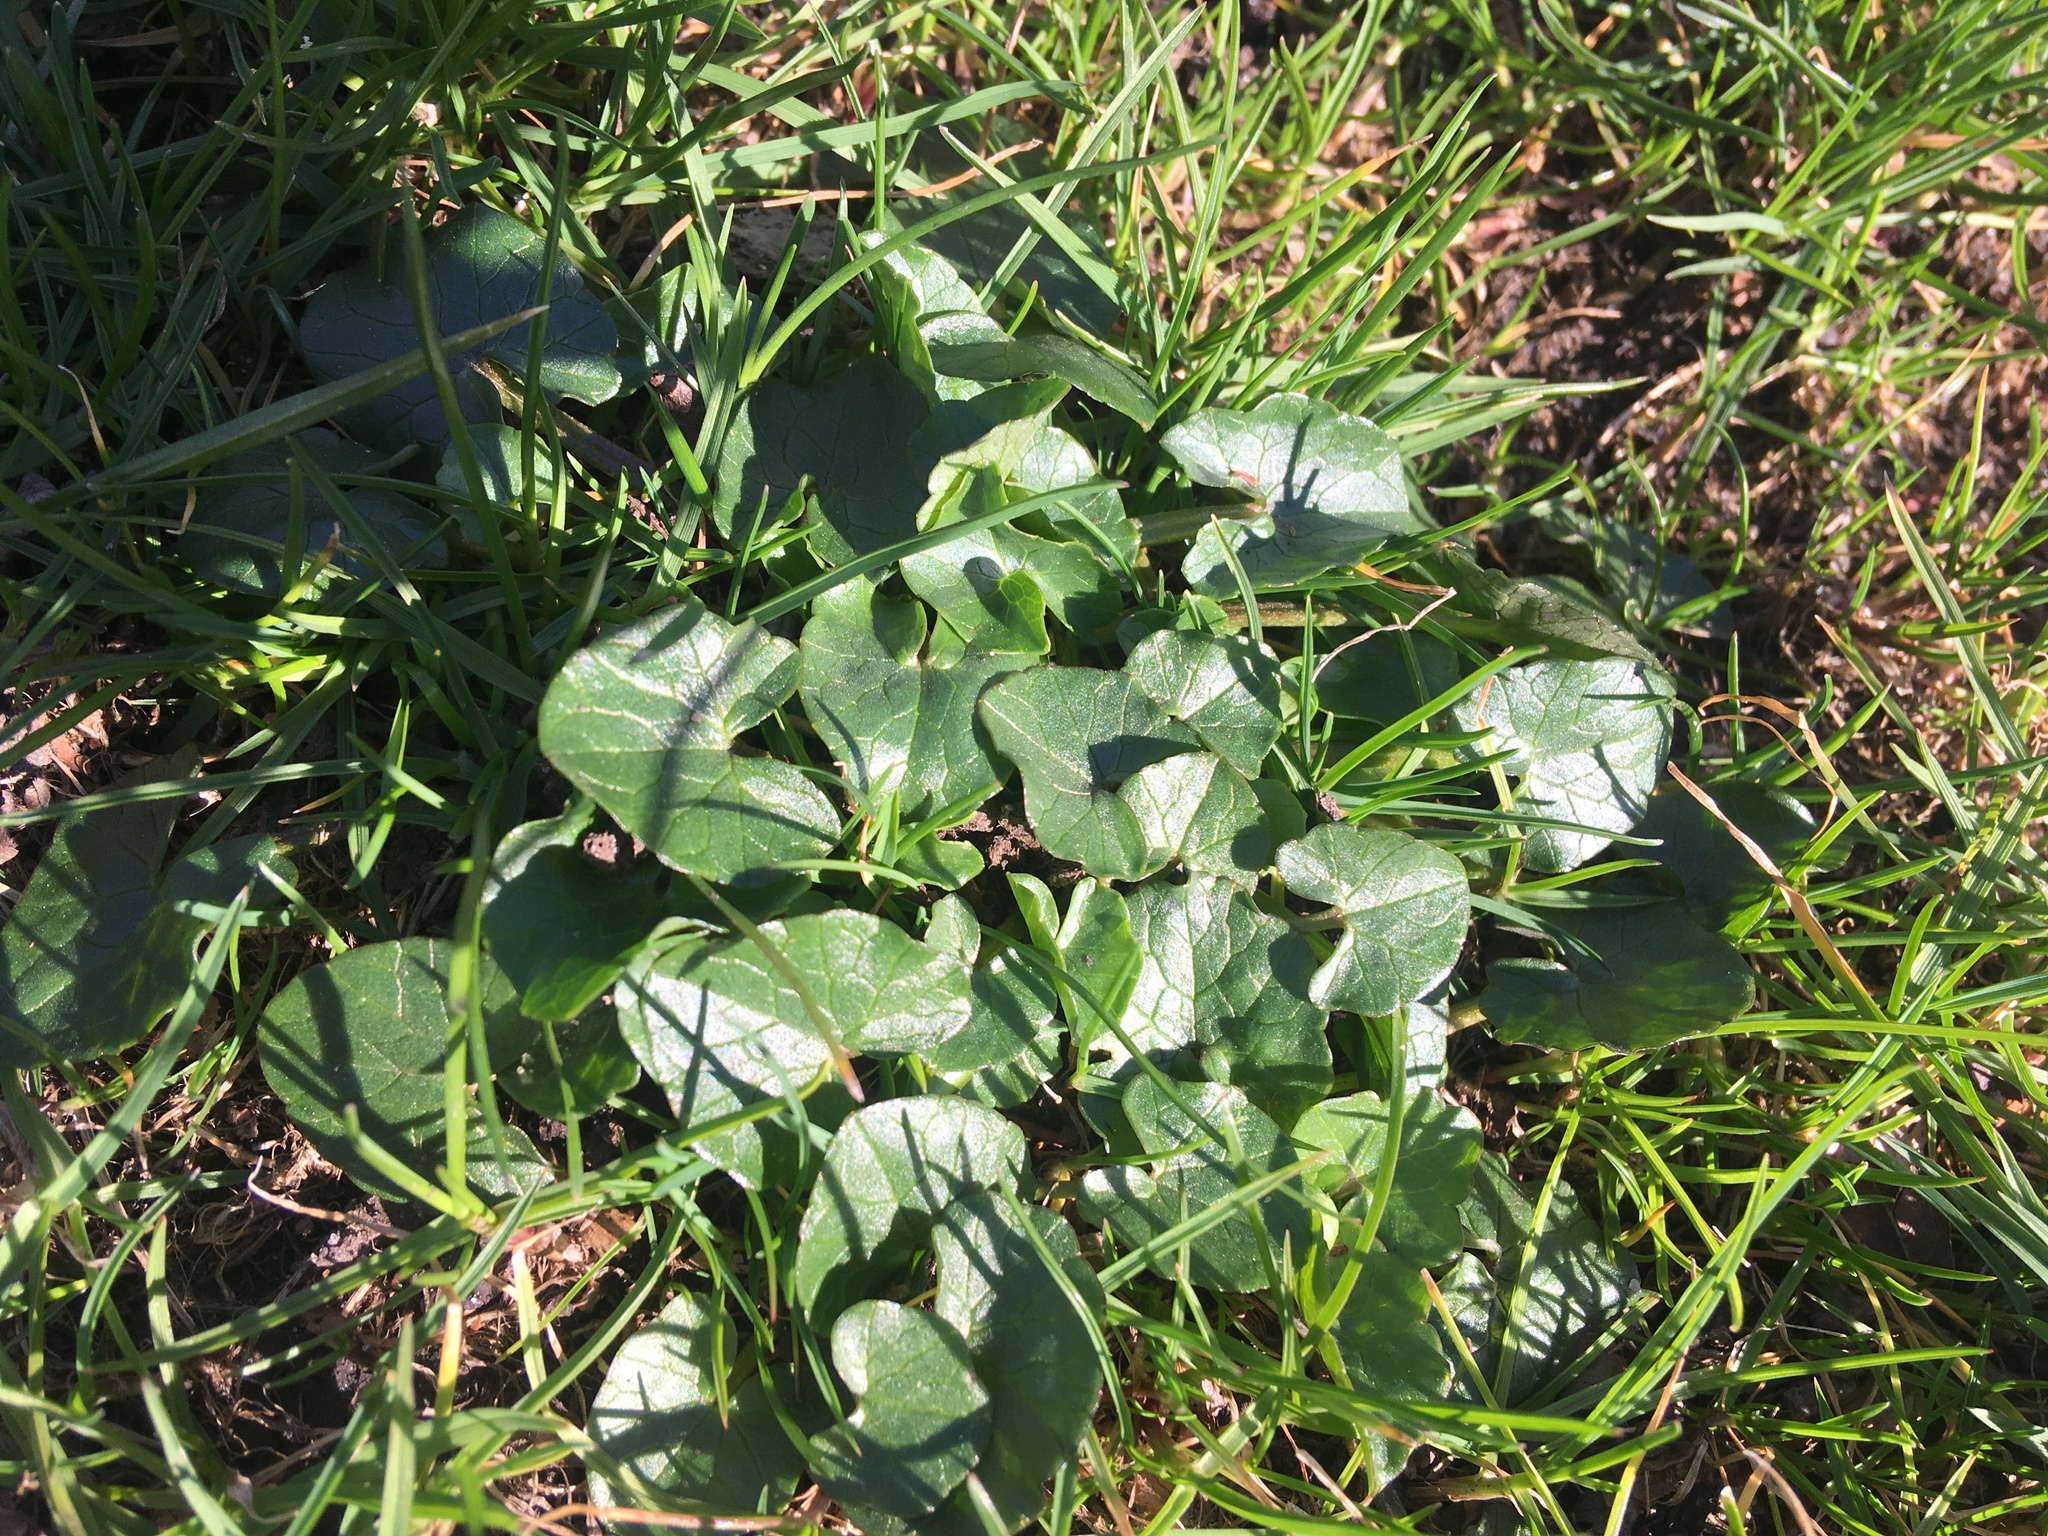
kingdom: Plantae
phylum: Tracheophyta
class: Magnoliopsida
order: Ranunculales
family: Ranunculaceae
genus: Ficaria
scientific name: Ficaria verna
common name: Lesser celandine
